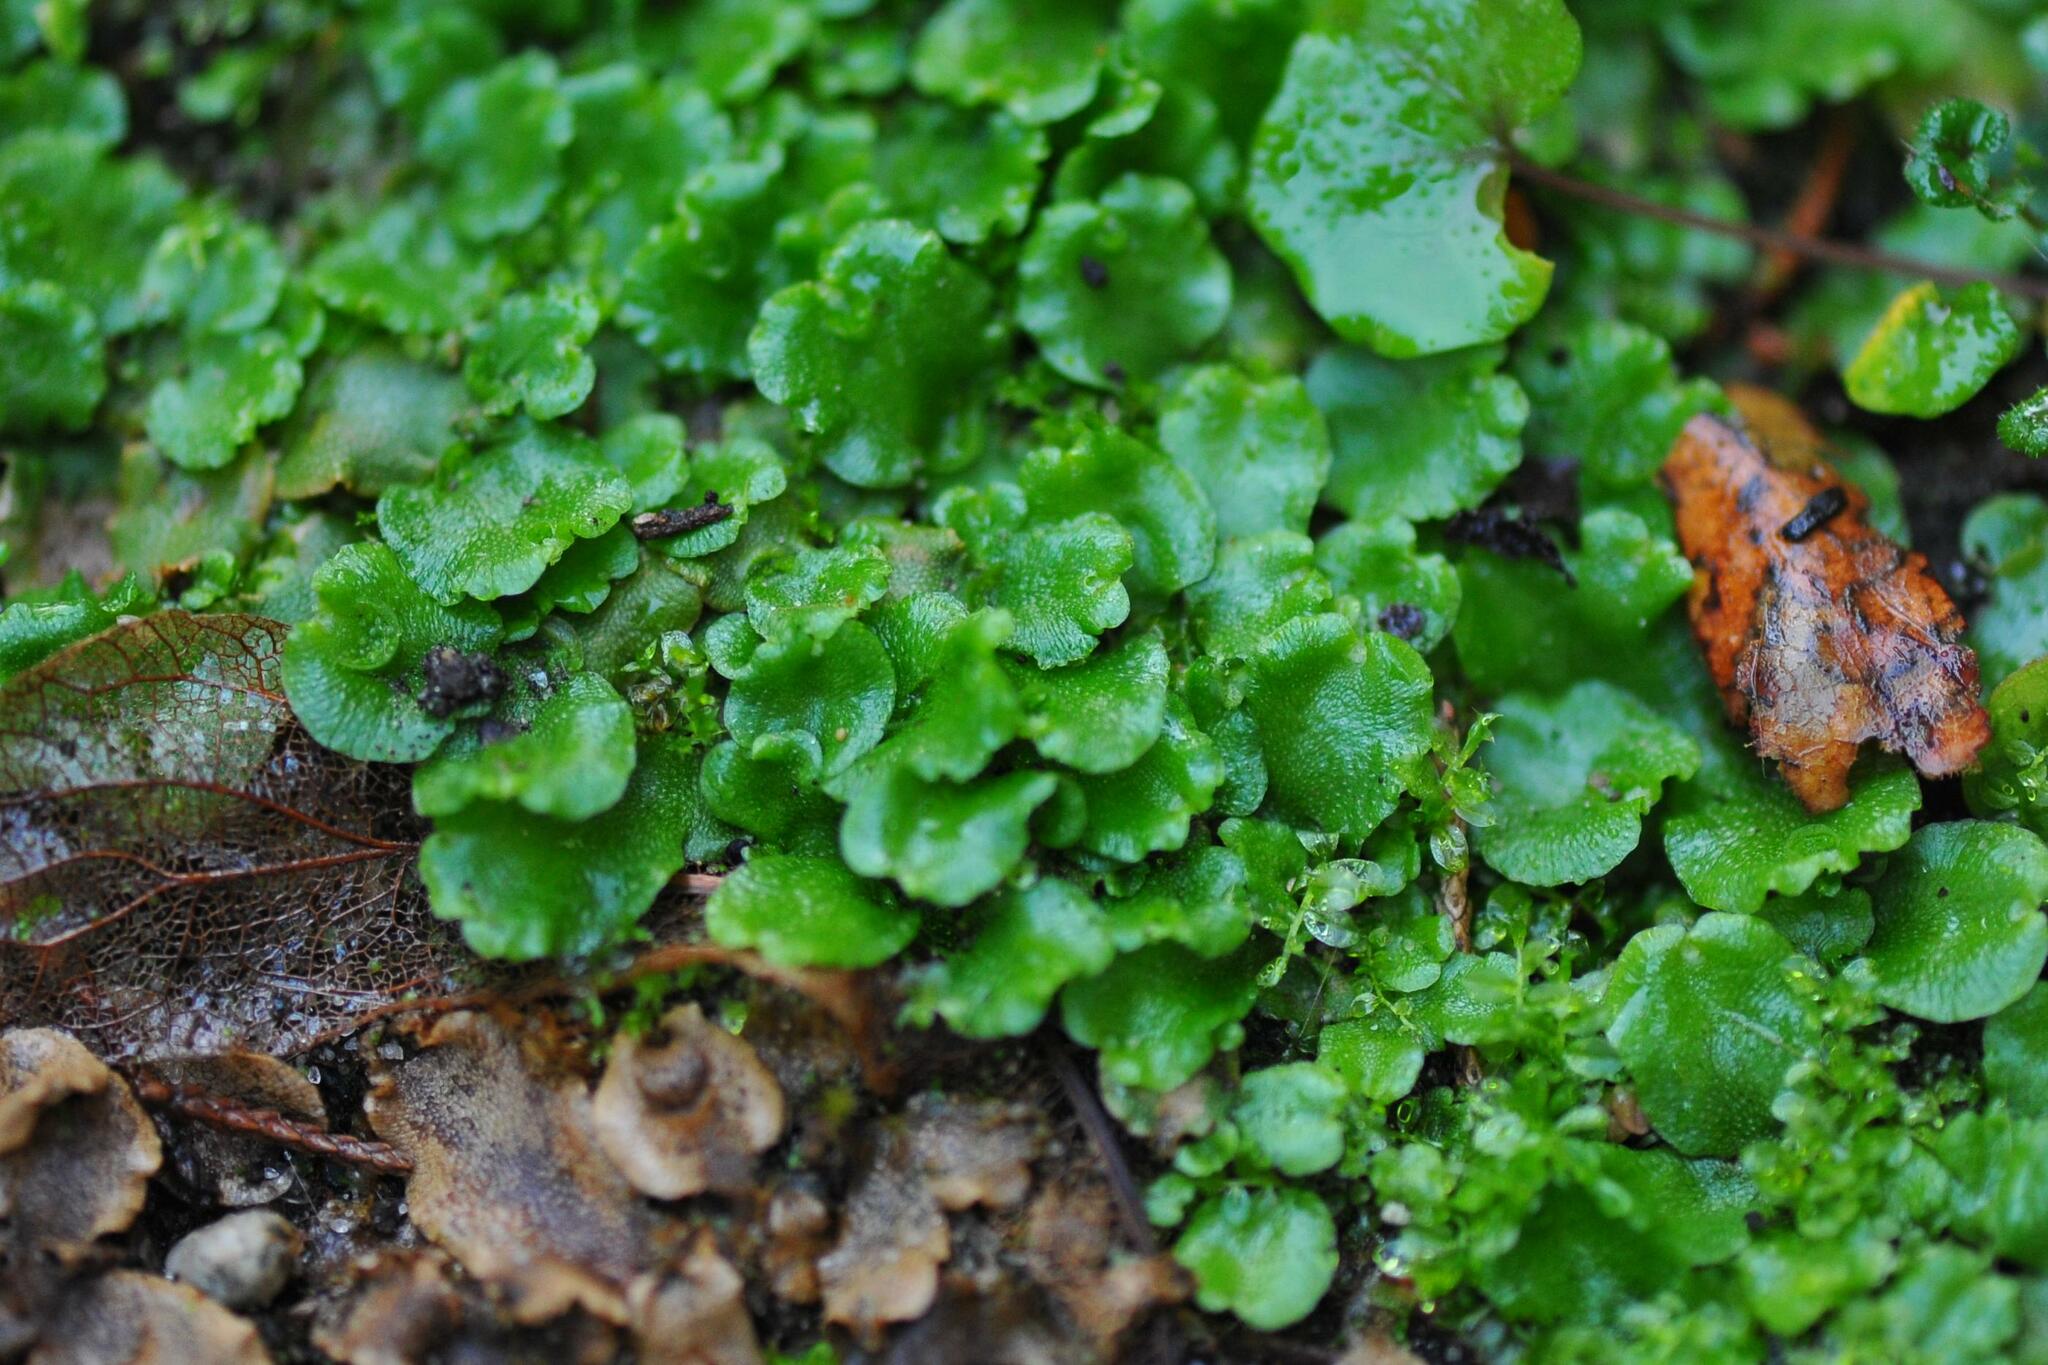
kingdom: Plantae
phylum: Marchantiophyta
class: Marchantiopsida
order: Lunulariales
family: Lunulariaceae
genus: Lunularia
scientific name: Lunularia cruciata
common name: Crescent-cup liverwort
